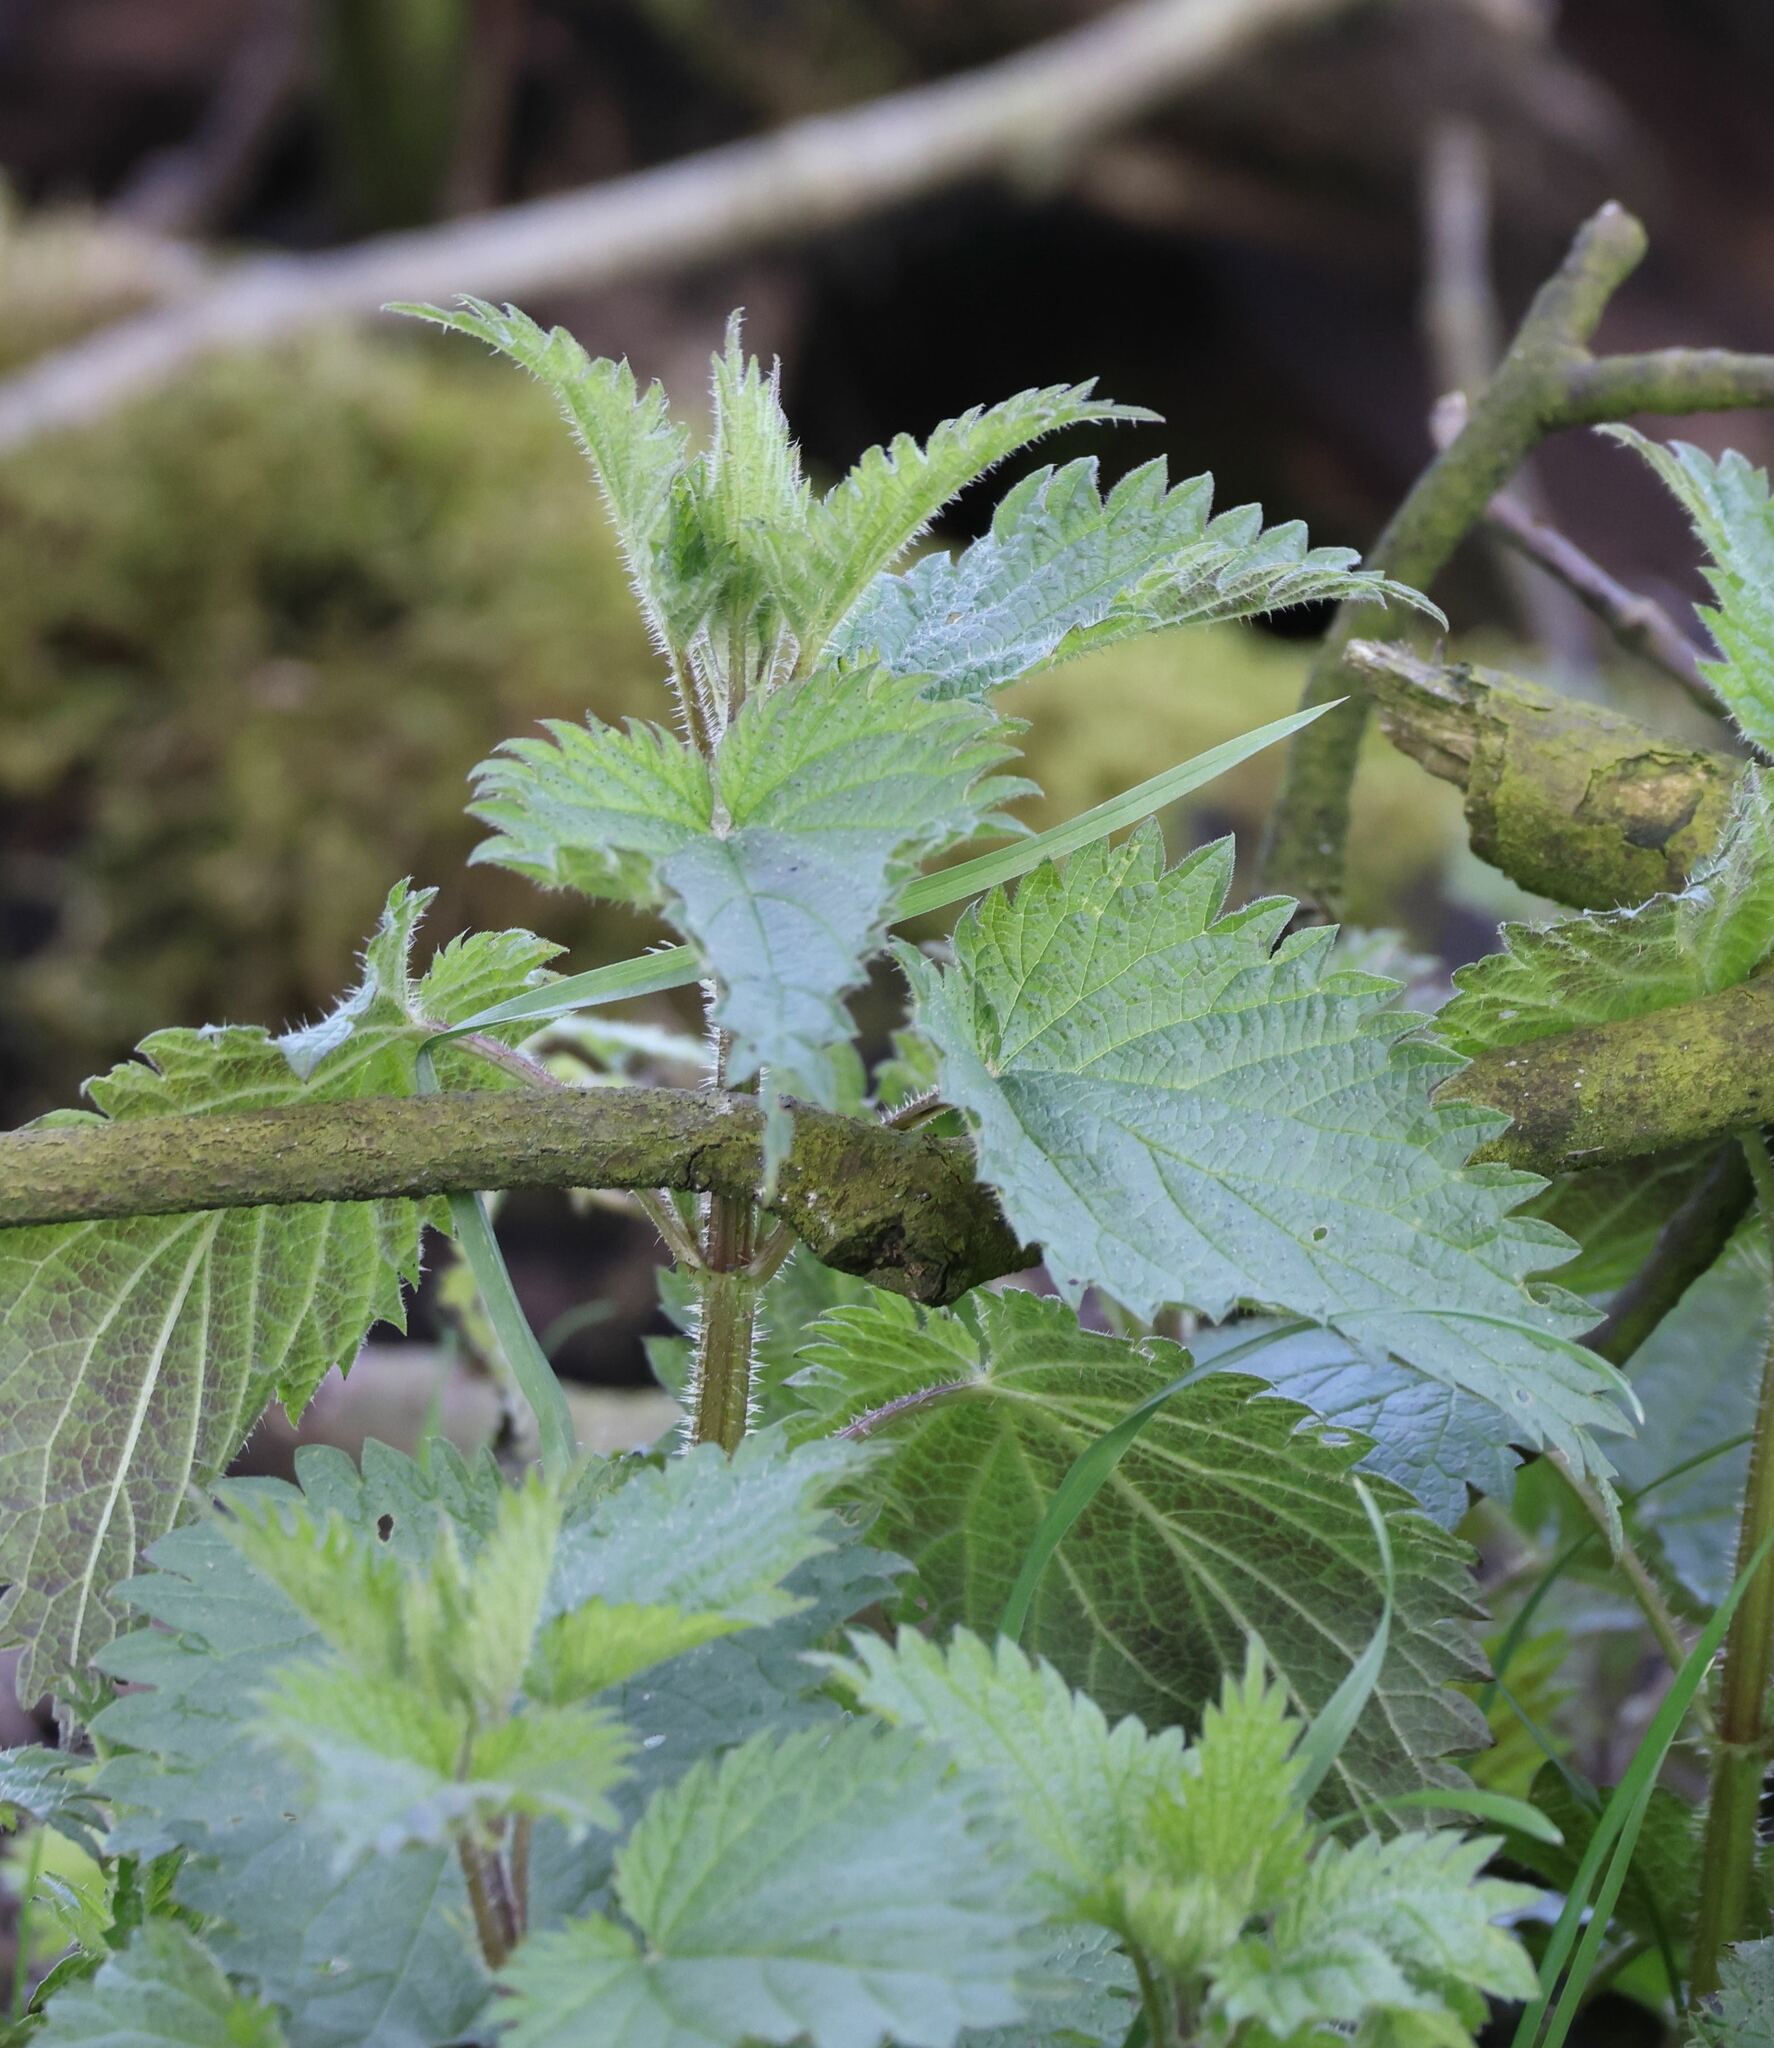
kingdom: Plantae
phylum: Tracheophyta
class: Magnoliopsida
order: Rosales
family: Urticaceae
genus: Urtica
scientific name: Urtica dioica
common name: Common nettle
